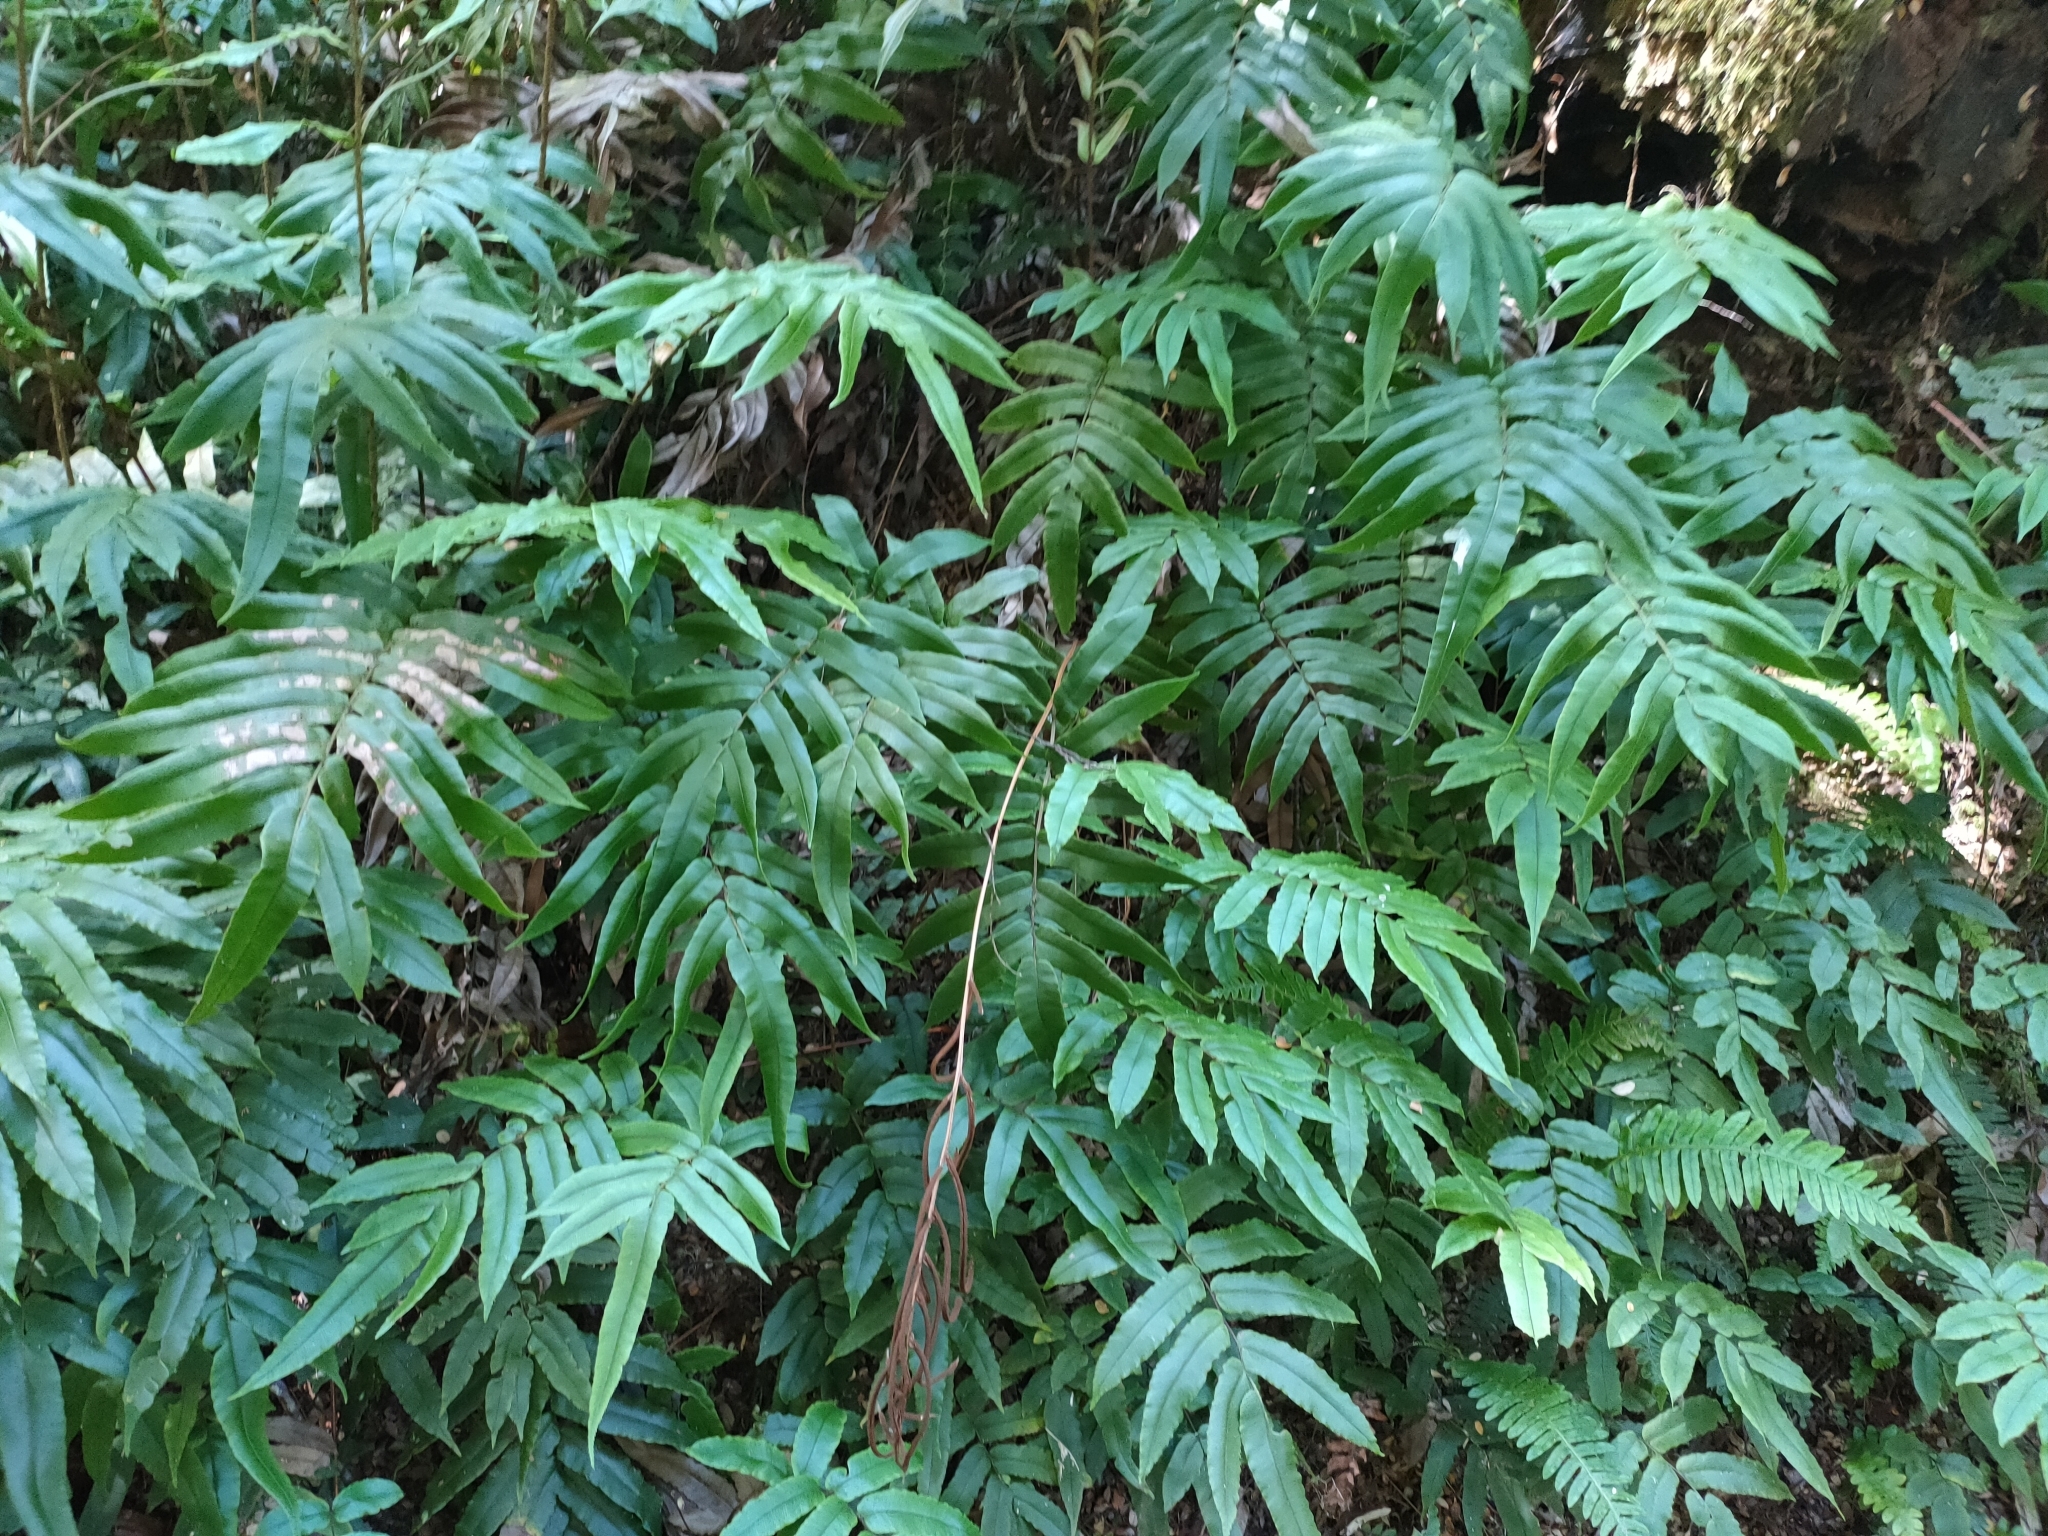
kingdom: Plantae
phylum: Tracheophyta
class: Polypodiopsida
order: Polypodiales
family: Blechnaceae
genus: Parablechnum
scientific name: Parablechnum procerum
